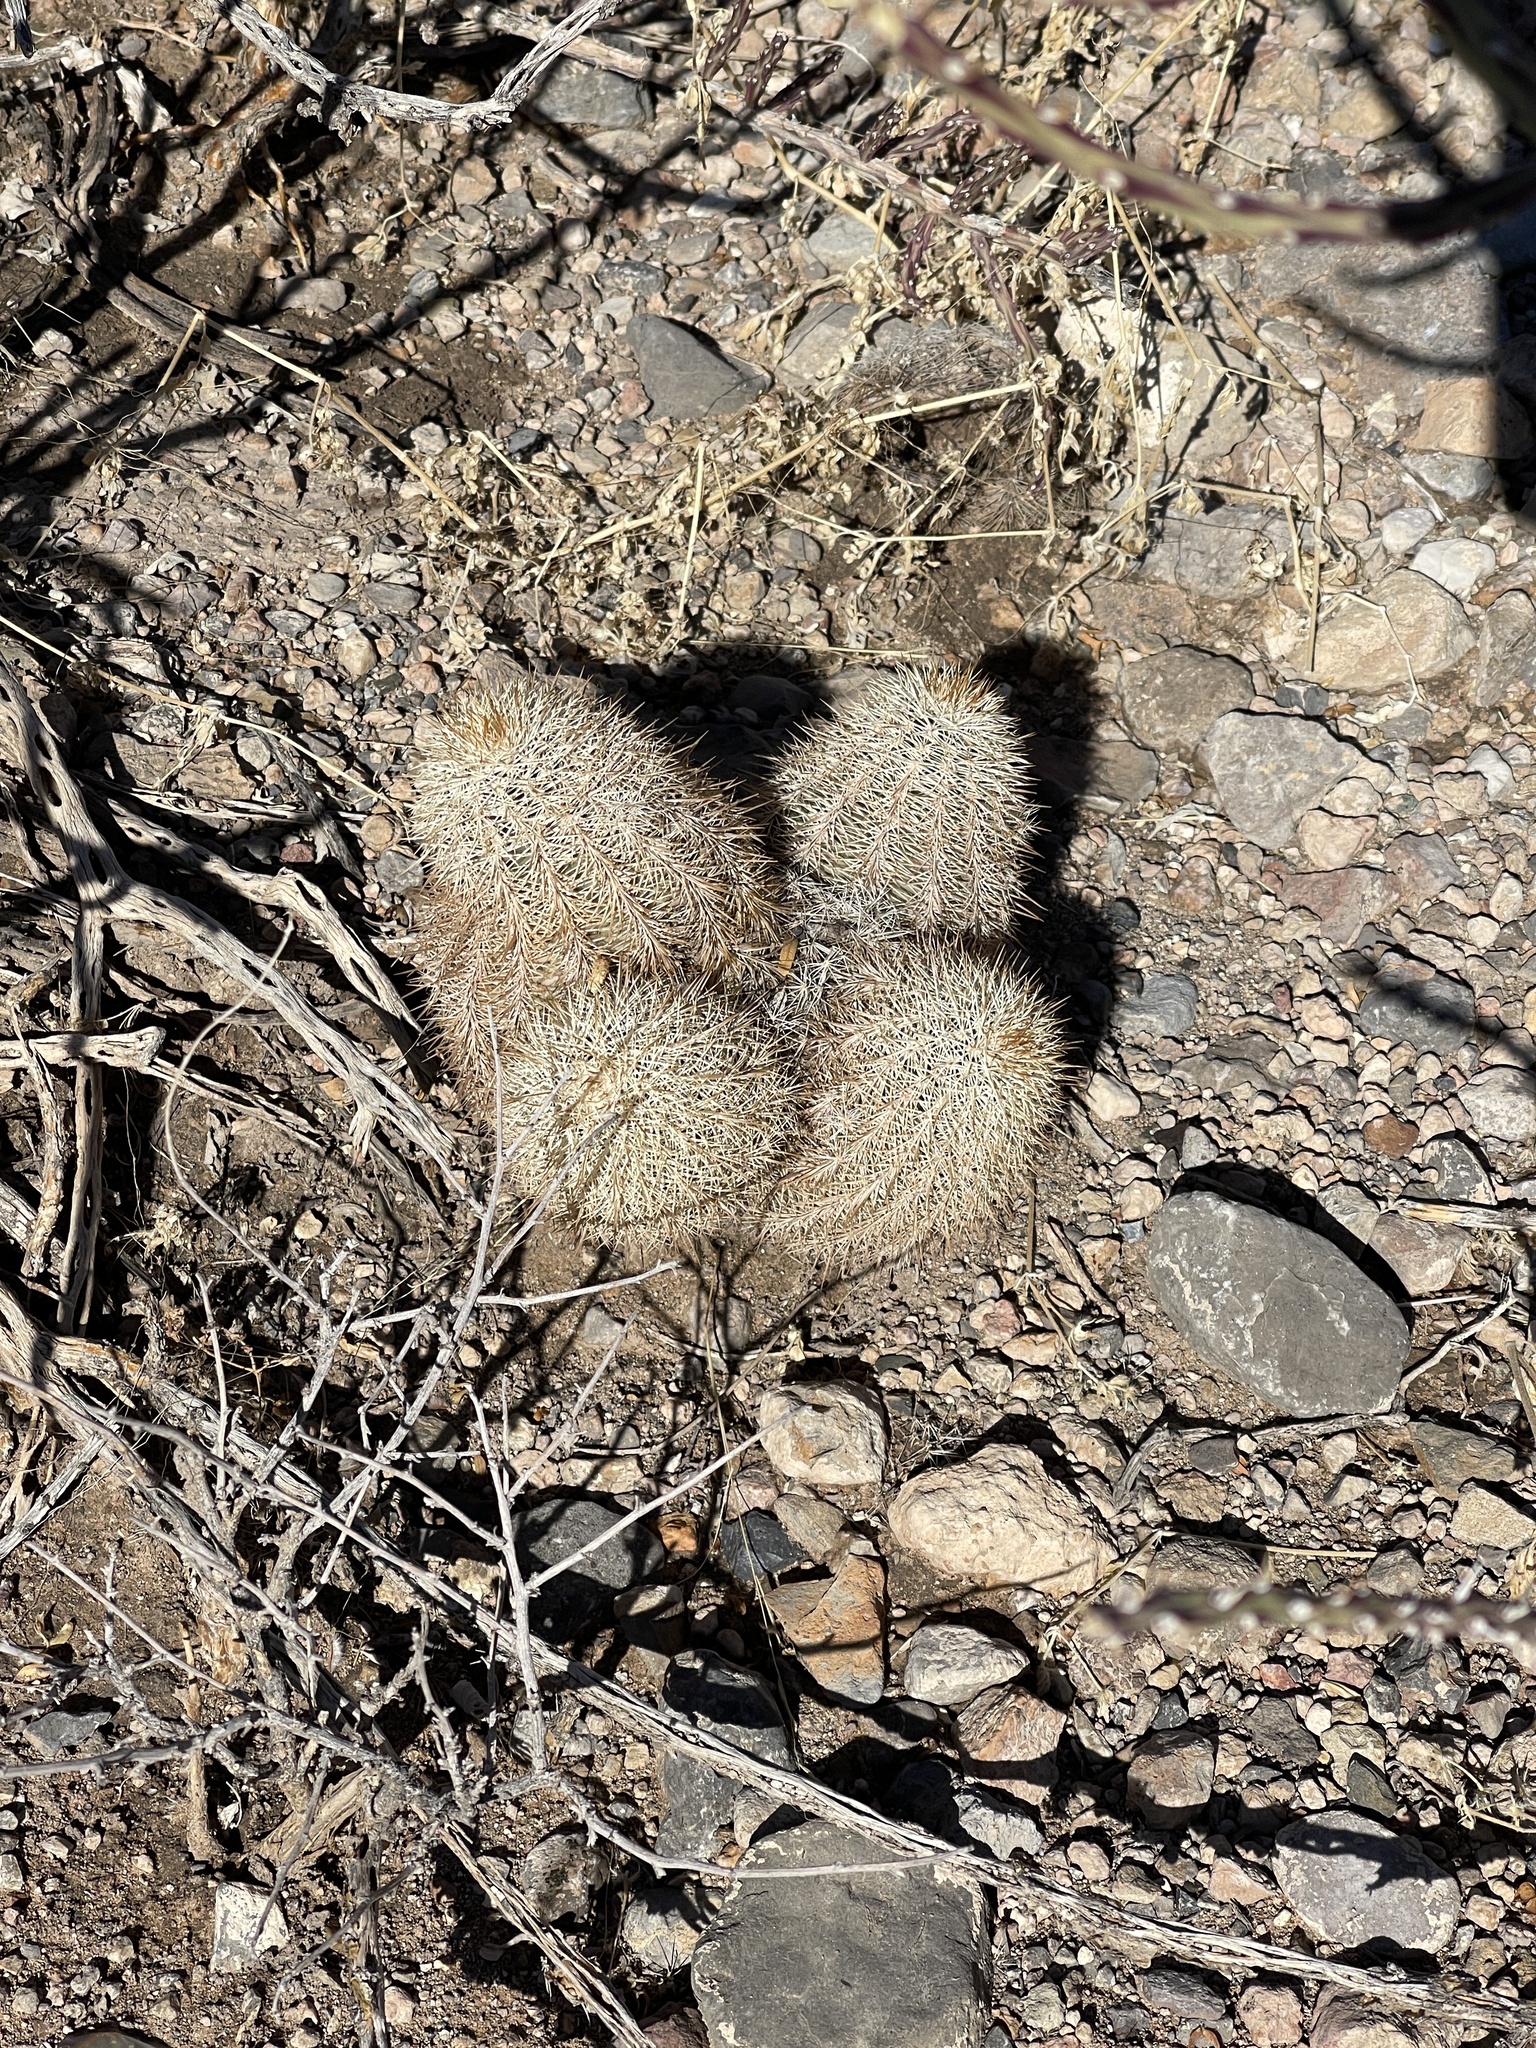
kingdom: Plantae
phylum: Tracheophyta
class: Magnoliopsida
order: Caryophyllales
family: Cactaceae
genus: Echinocereus
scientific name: Echinocereus dasyacanthus
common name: Spiny hedgehog cactus
